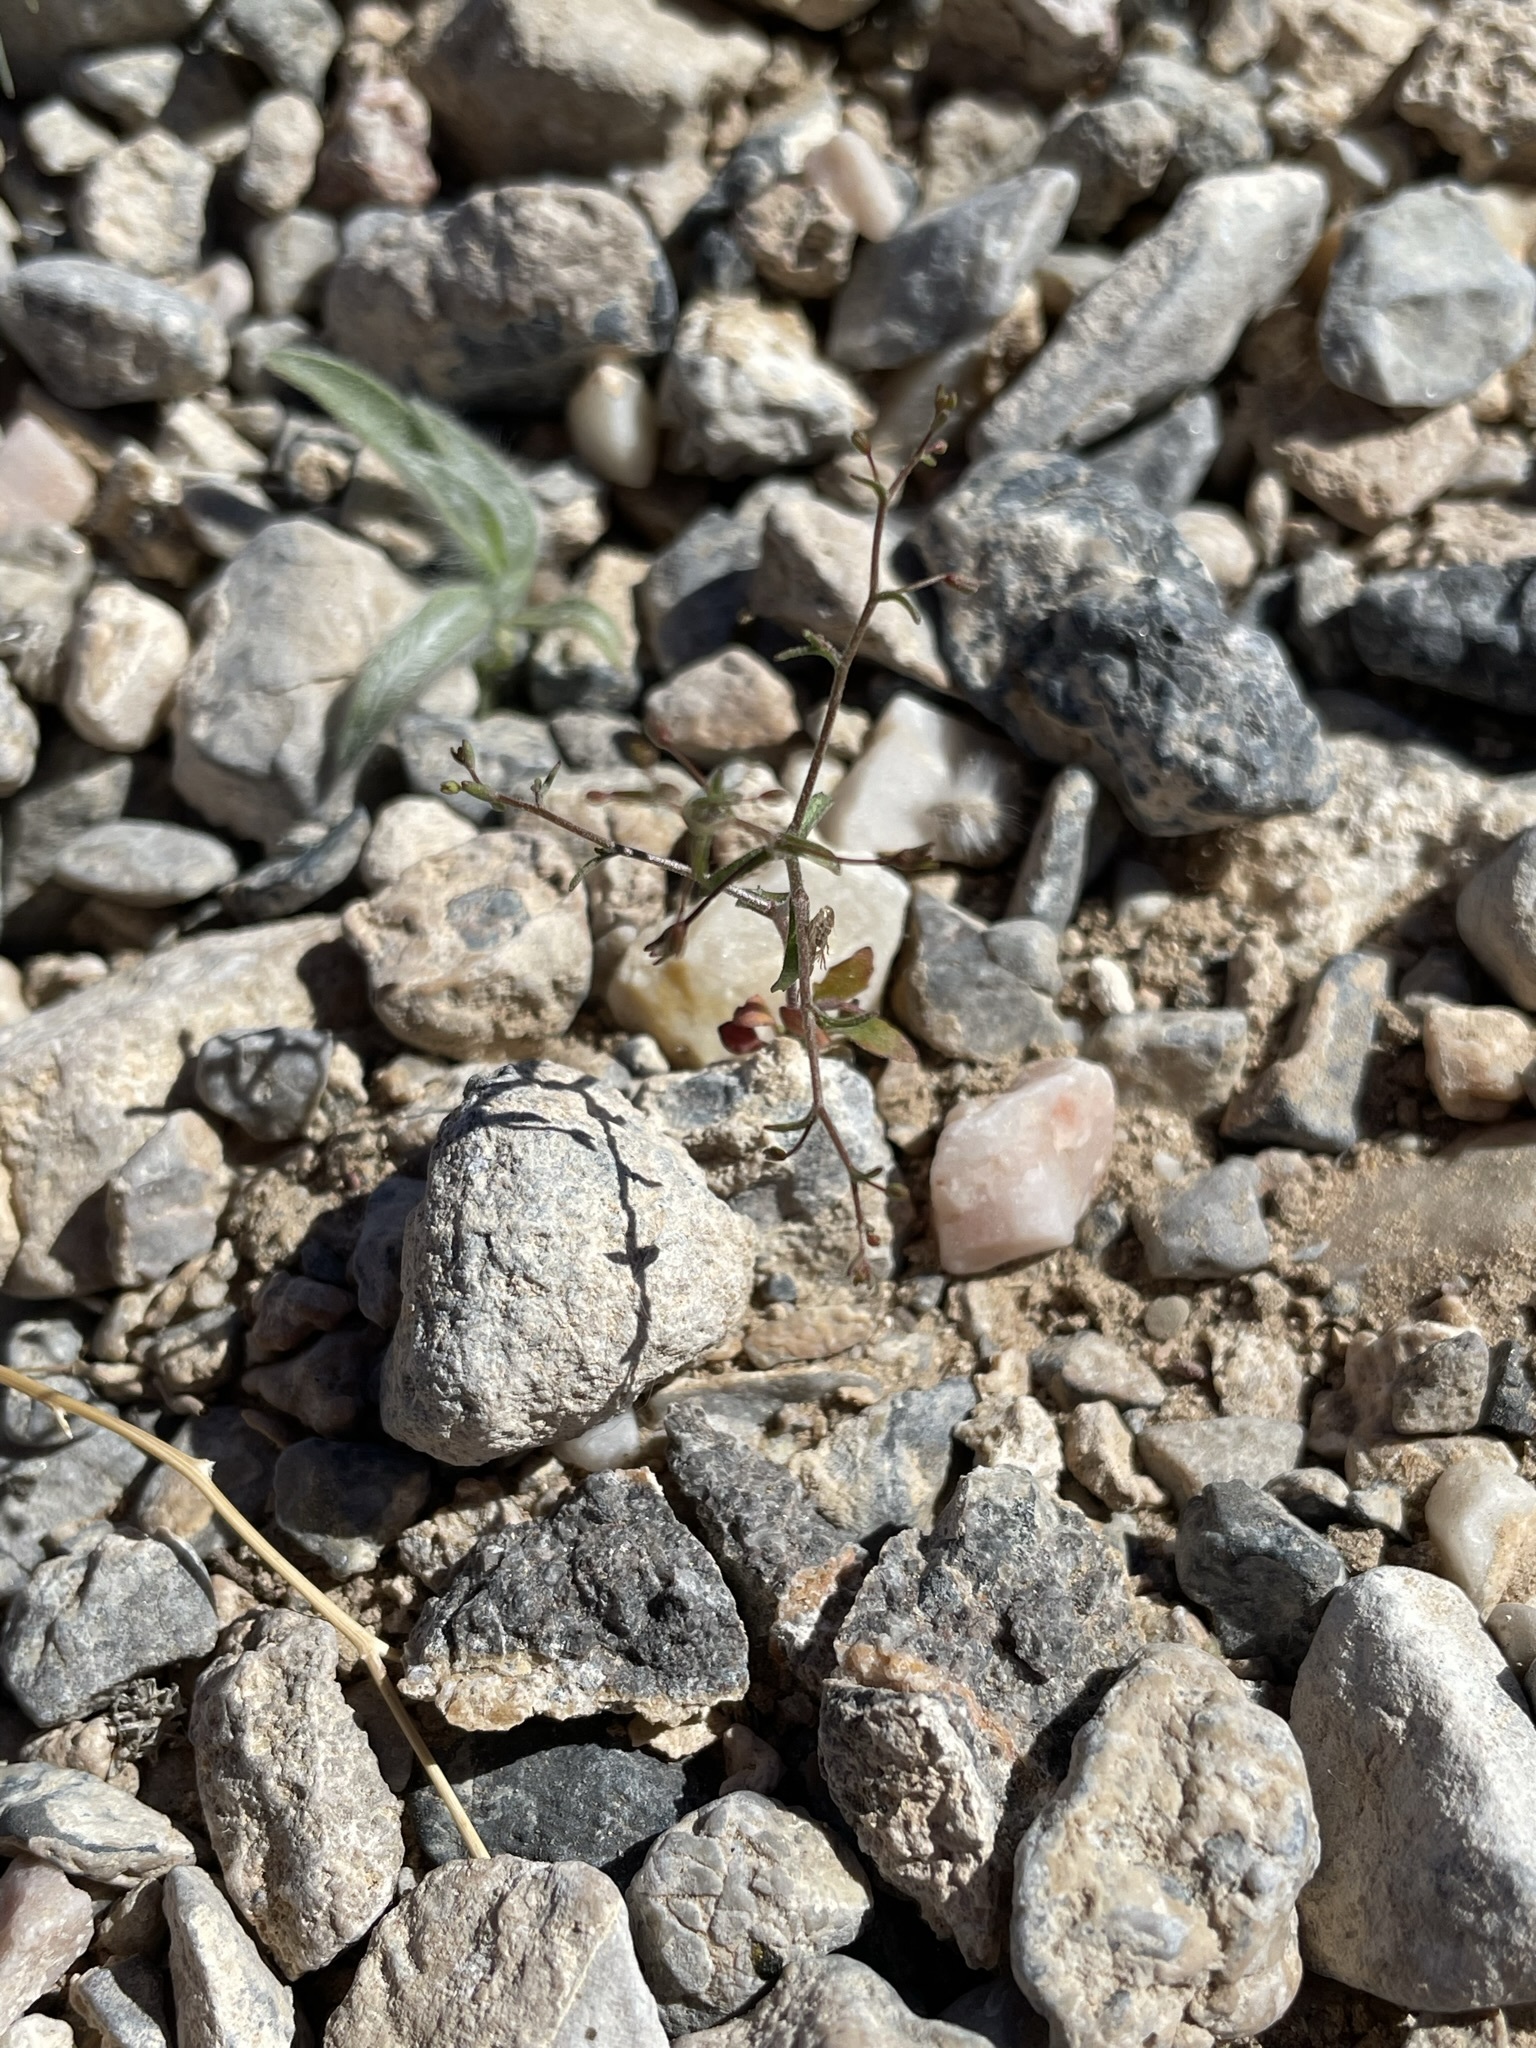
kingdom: Plantae
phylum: Tracheophyta
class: Magnoliopsida
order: Asterales
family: Campanulaceae
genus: Nemacladus
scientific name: Nemacladus
